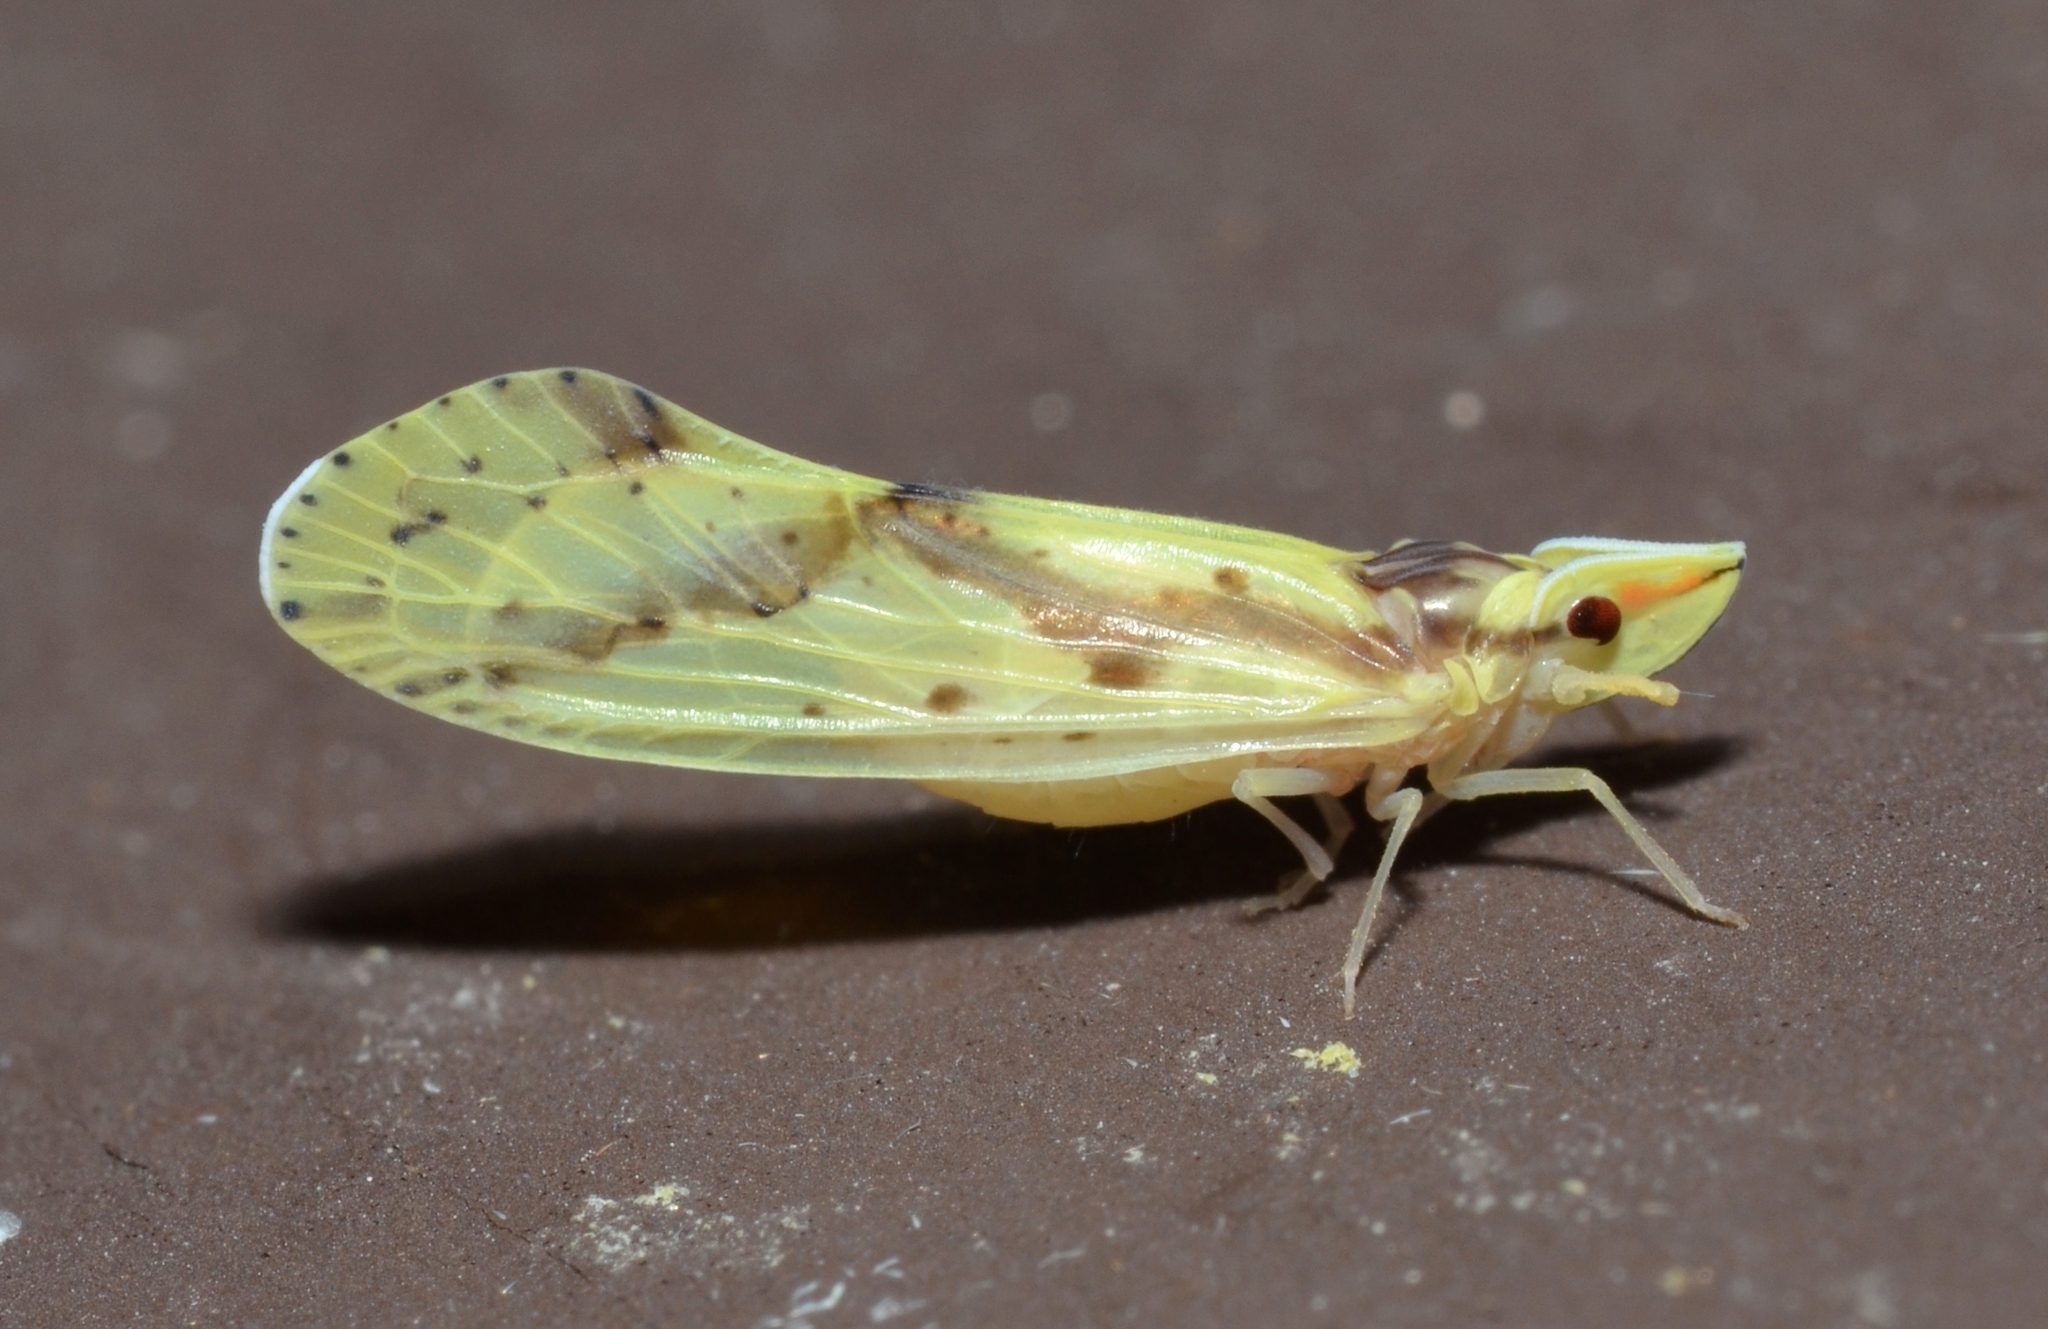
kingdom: Animalia
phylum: Arthropoda
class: Insecta
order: Hemiptera
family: Derbidae
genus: Otiocerus
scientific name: Otiocerus wolfii
